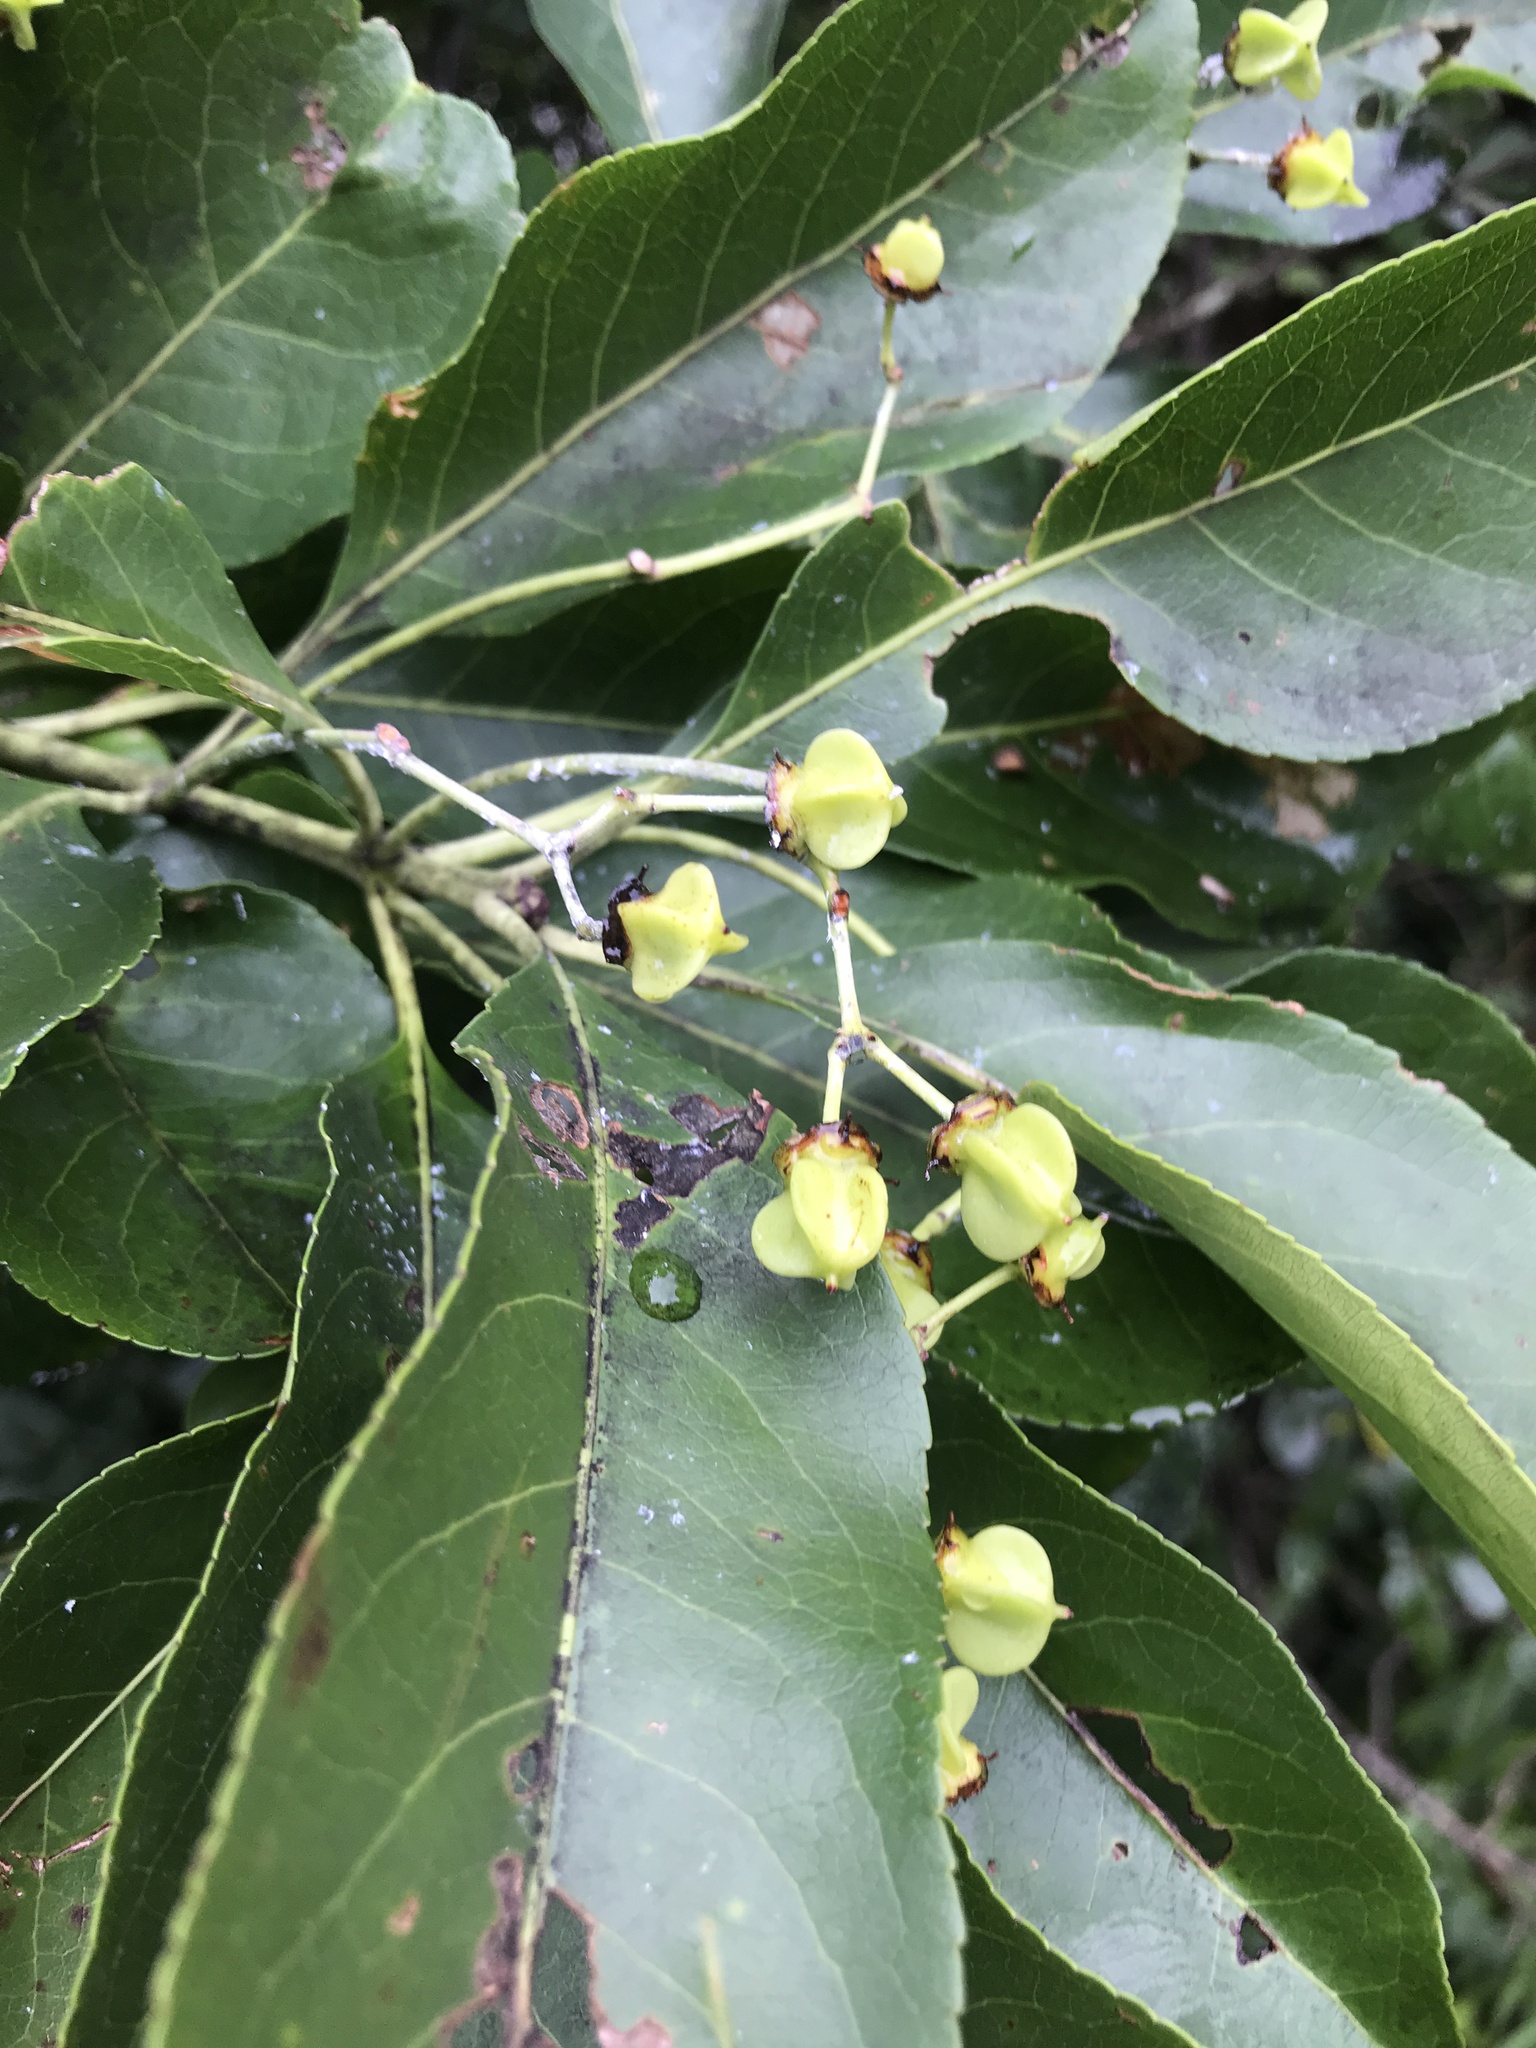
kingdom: Plantae
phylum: Tracheophyta
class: Magnoliopsida
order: Celastrales
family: Celastraceae
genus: Euonymus
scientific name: Euonymus carnosus
